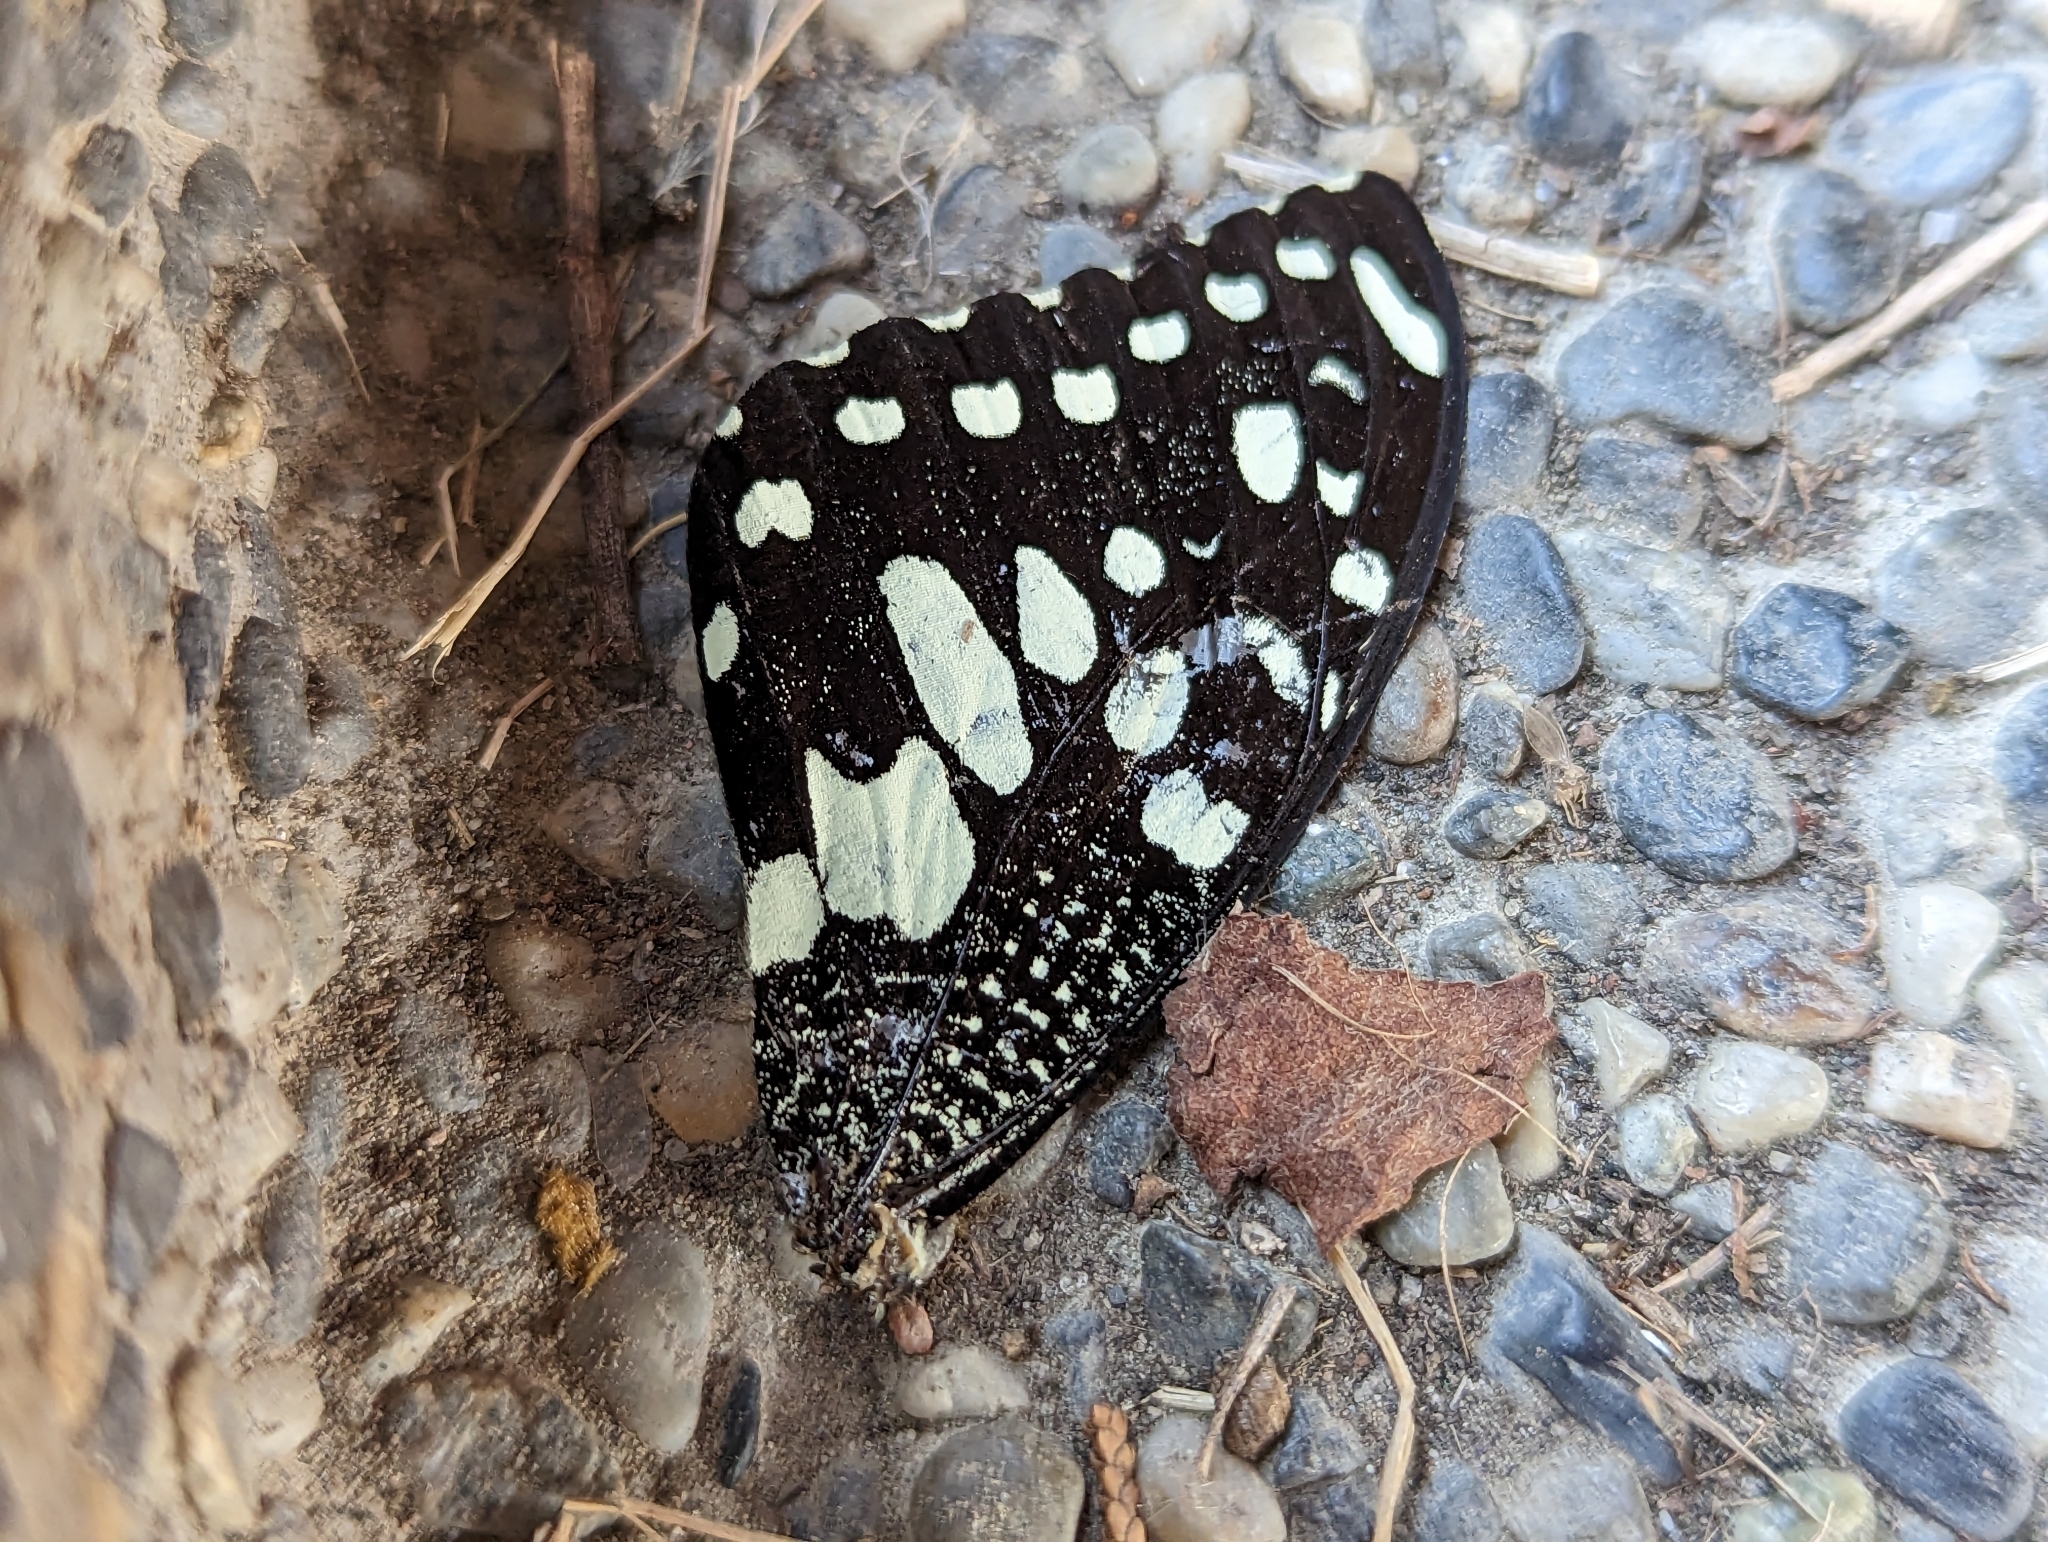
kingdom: Animalia
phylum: Arthropoda
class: Insecta
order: Lepidoptera
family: Papilionidae
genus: Papilio
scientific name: Papilio demoleus
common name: Lime butterfly
